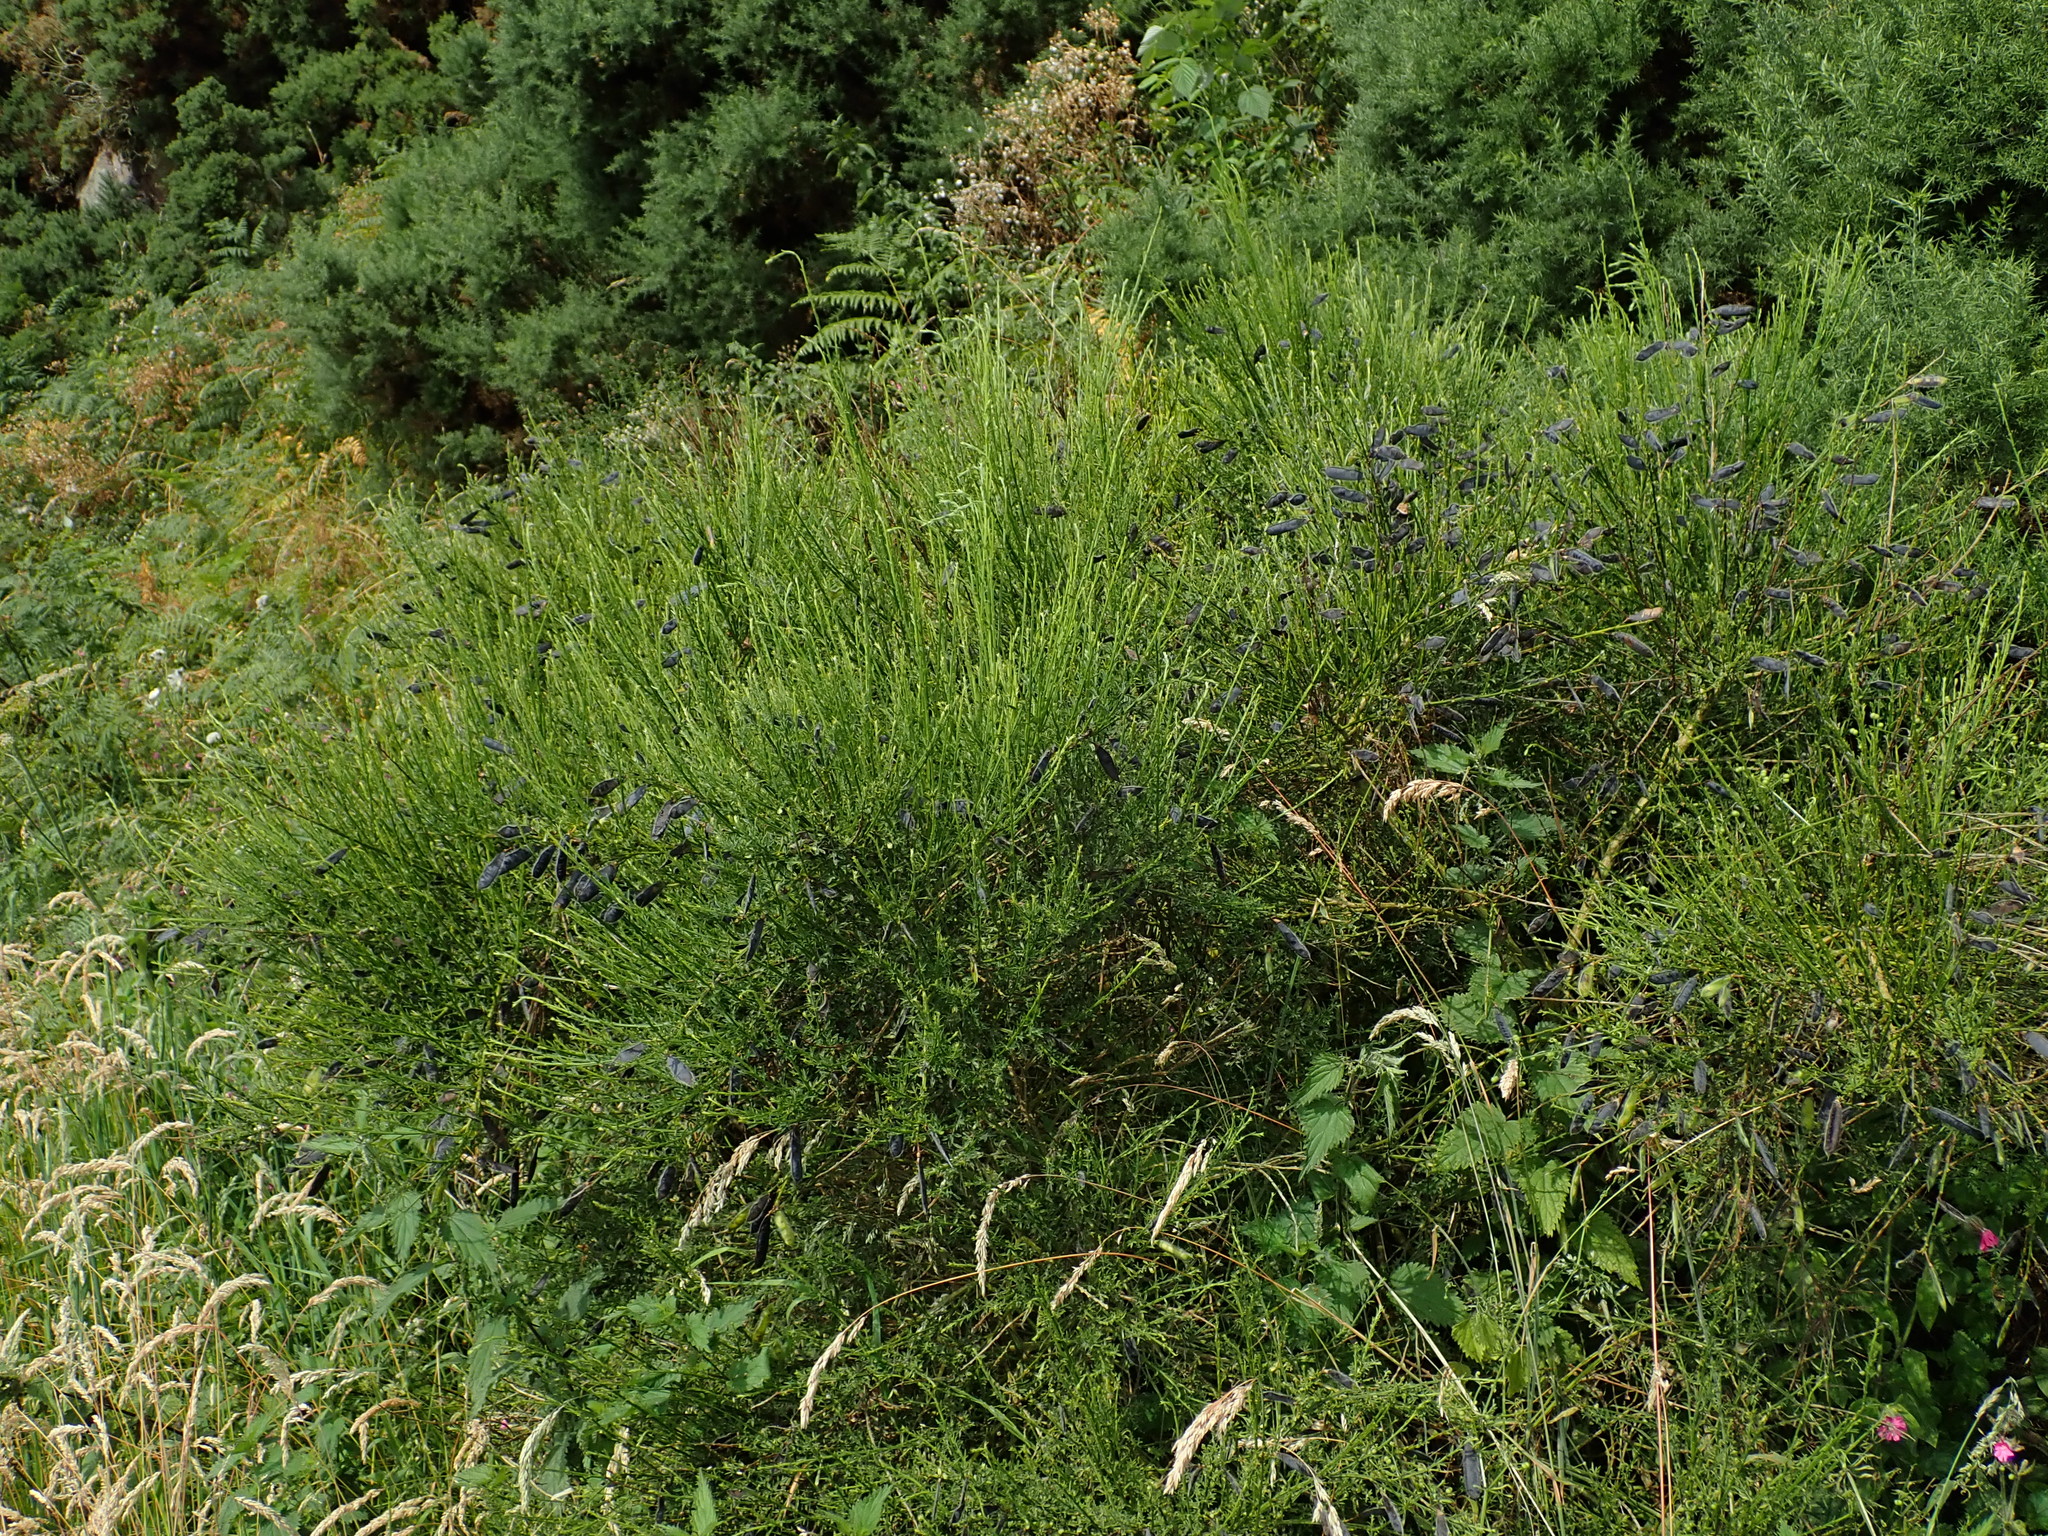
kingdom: Plantae
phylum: Tracheophyta
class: Magnoliopsida
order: Fabales
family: Fabaceae
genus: Cytisus
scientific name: Cytisus scoparius
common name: Scotch broom
